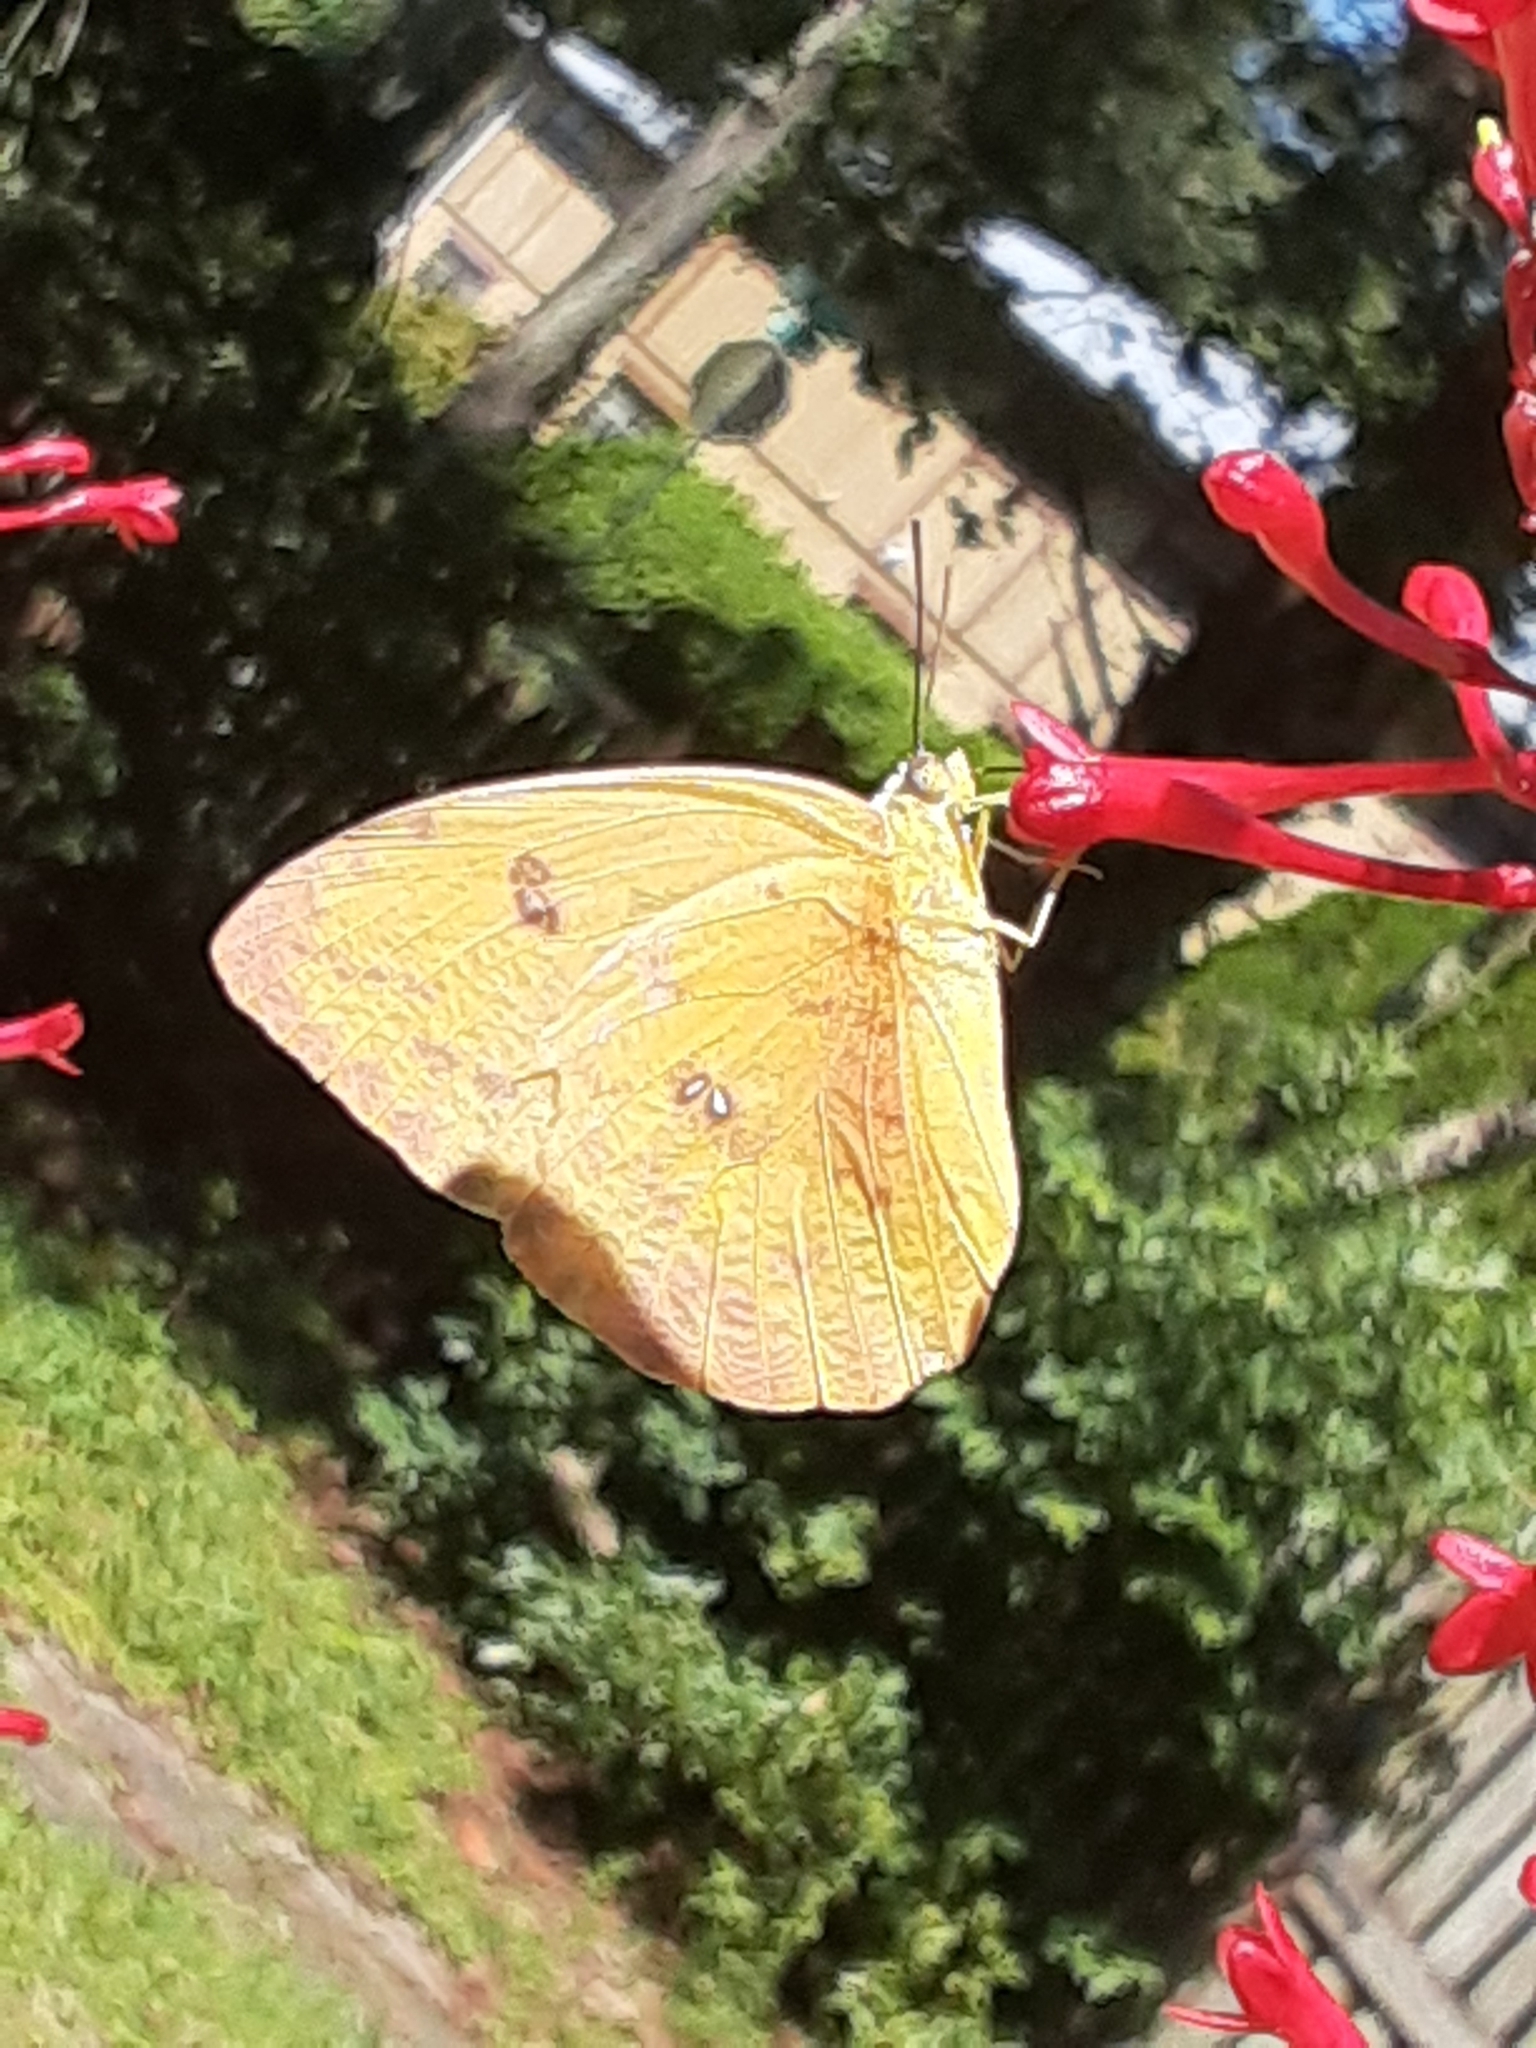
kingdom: Animalia
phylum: Arthropoda
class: Insecta
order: Lepidoptera
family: Pieridae
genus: Phoebis
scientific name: Phoebis philea
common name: Orange-barred giant sulphur
